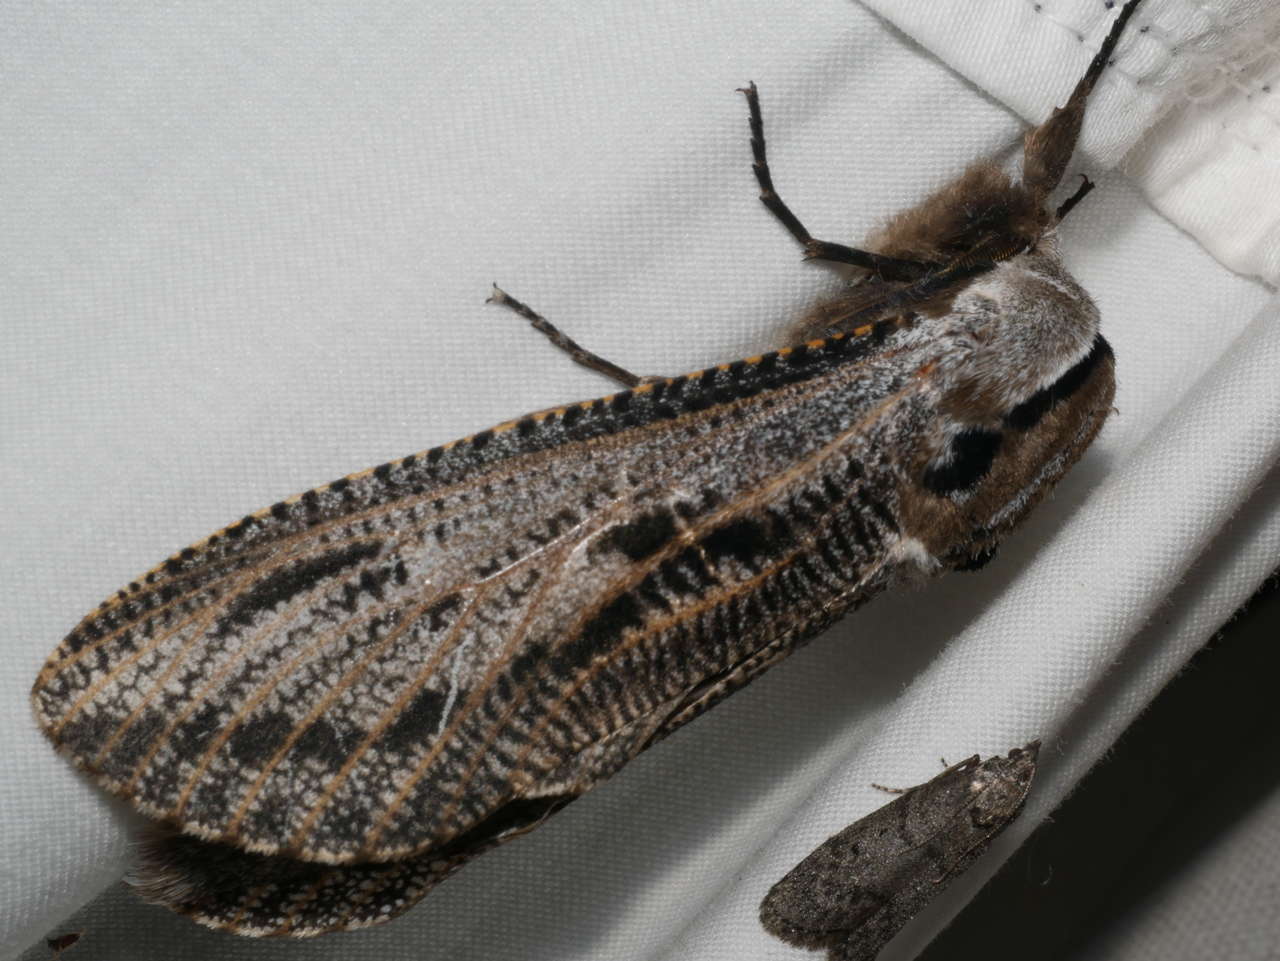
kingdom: Animalia
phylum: Arthropoda
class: Insecta
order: Lepidoptera
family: Cossidae
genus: Endoxyla
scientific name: Endoxyla liturata
